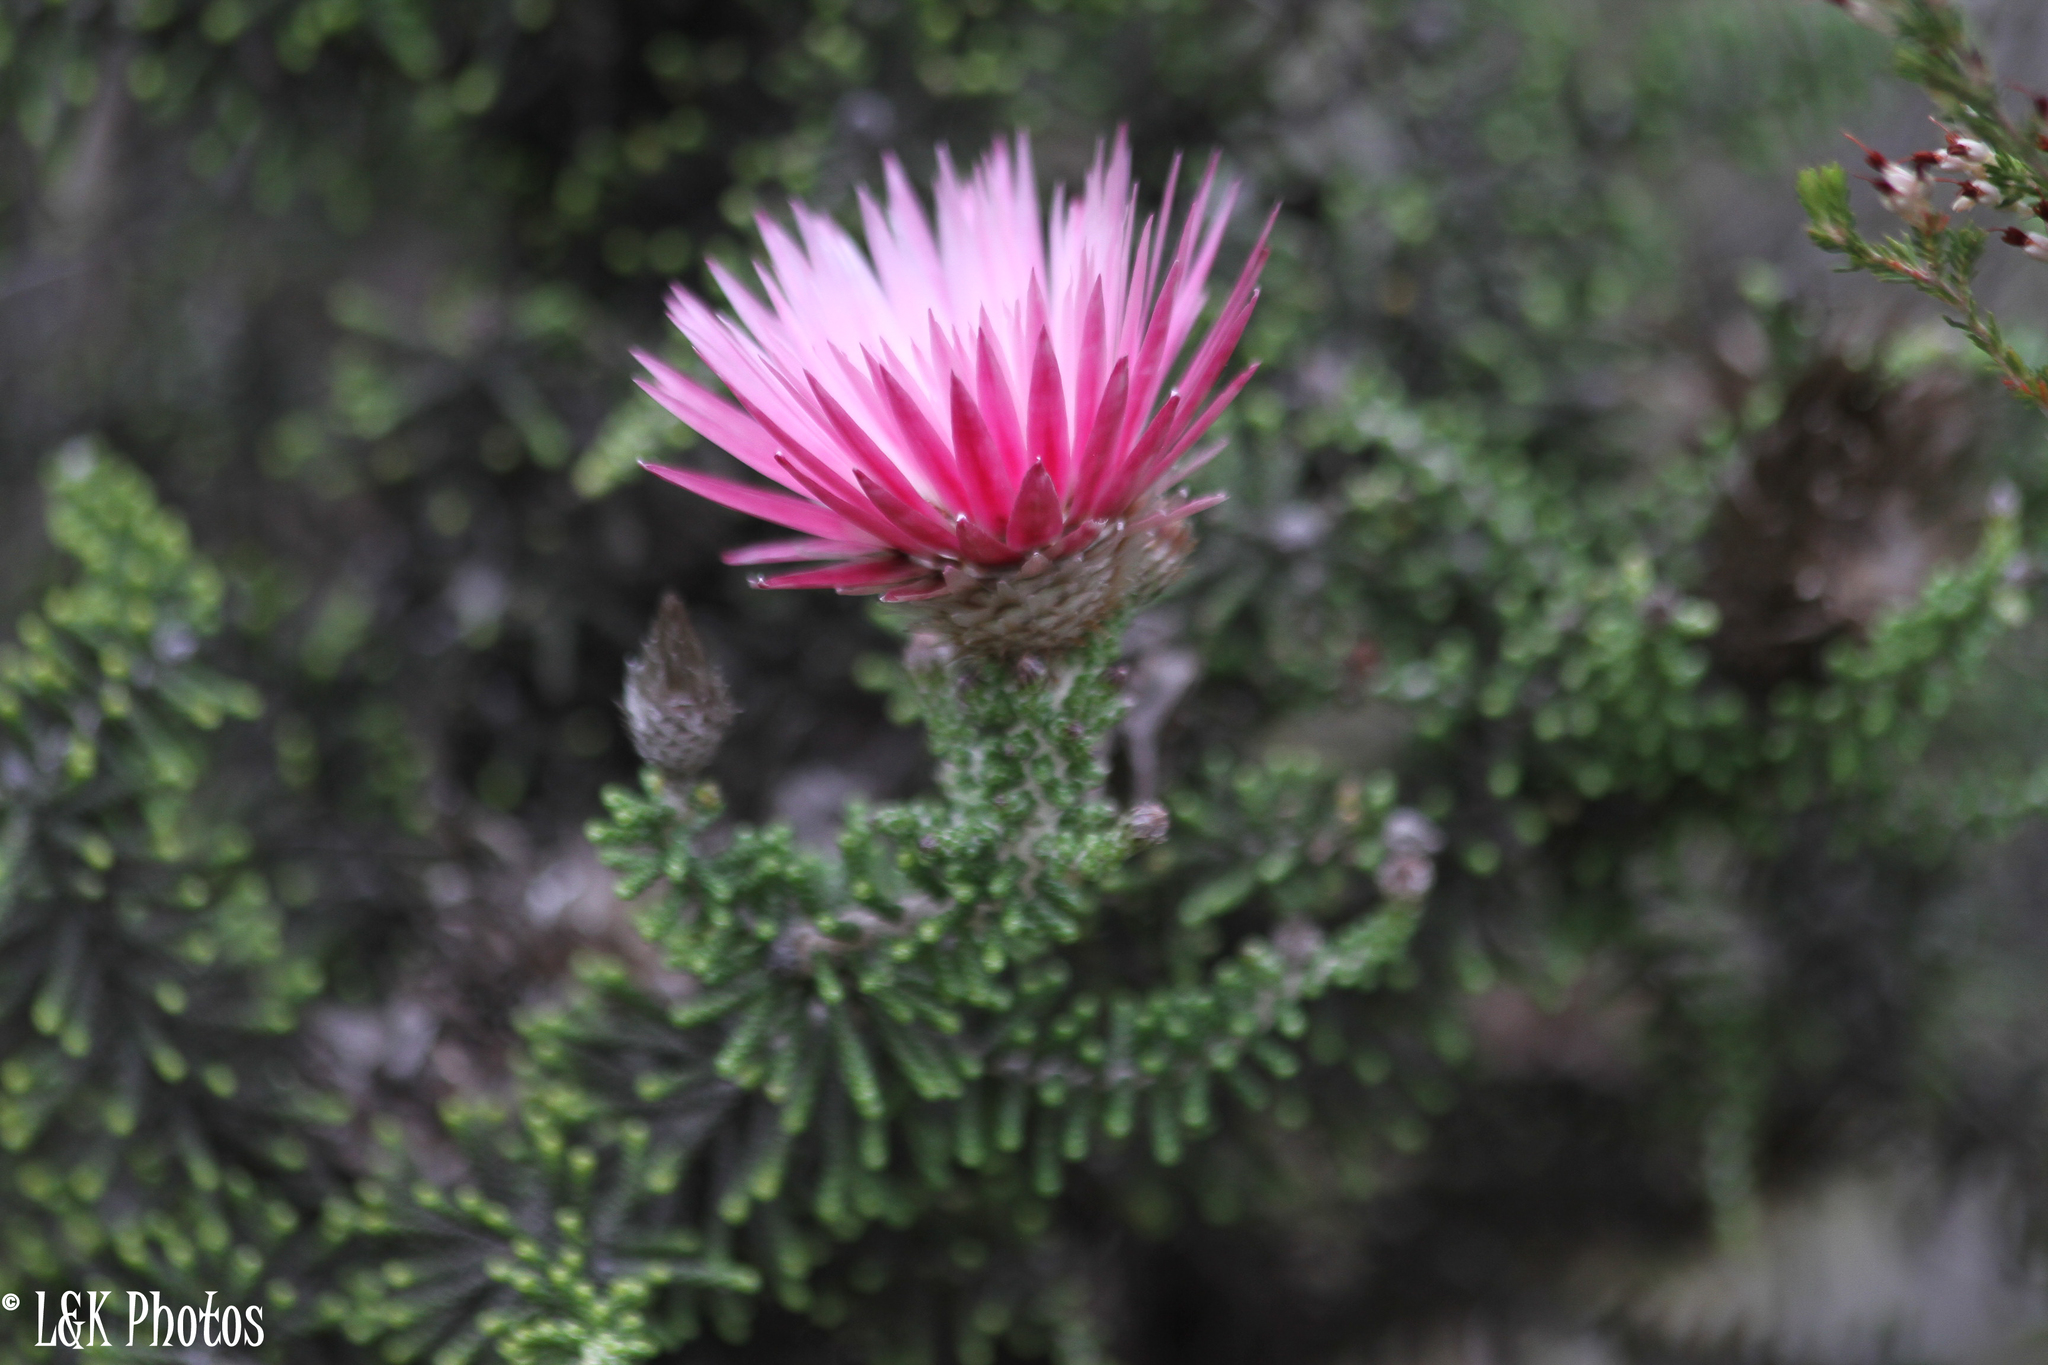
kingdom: Plantae
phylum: Tracheophyta
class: Magnoliopsida
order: Asterales
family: Asteraceae
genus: Phaenocoma
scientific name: Phaenocoma prolifera
